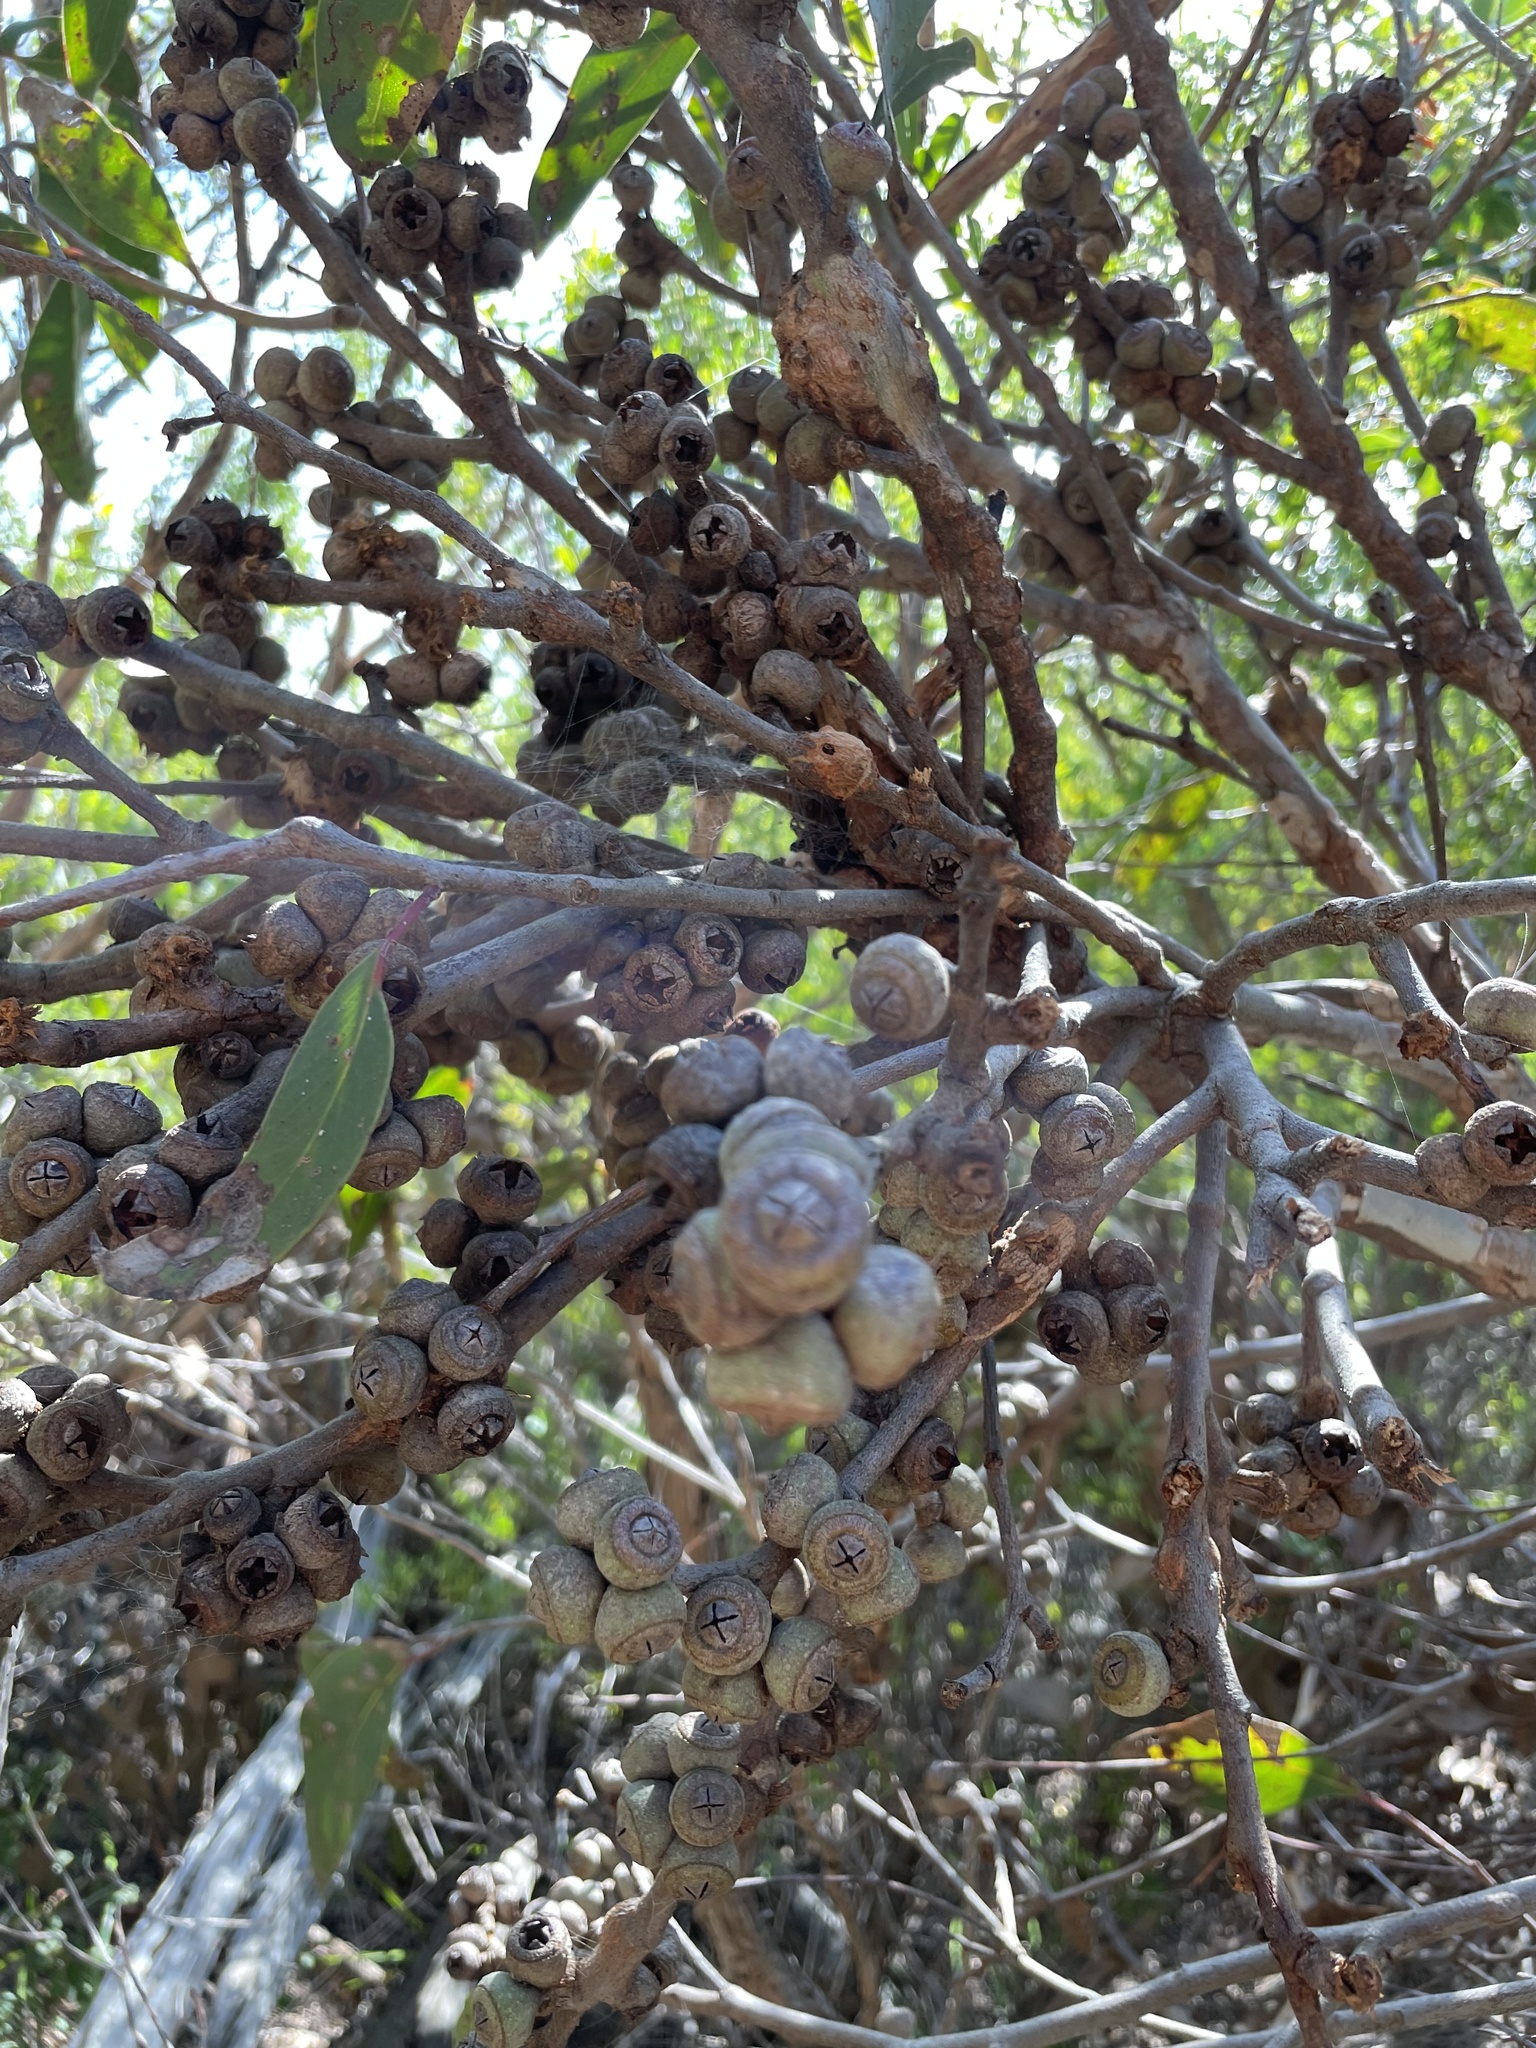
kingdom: Plantae
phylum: Tracheophyta
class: Magnoliopsida
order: Myrtales
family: Myrtaceae
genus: Eucalyptus
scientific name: Eucalyptus baxteri
